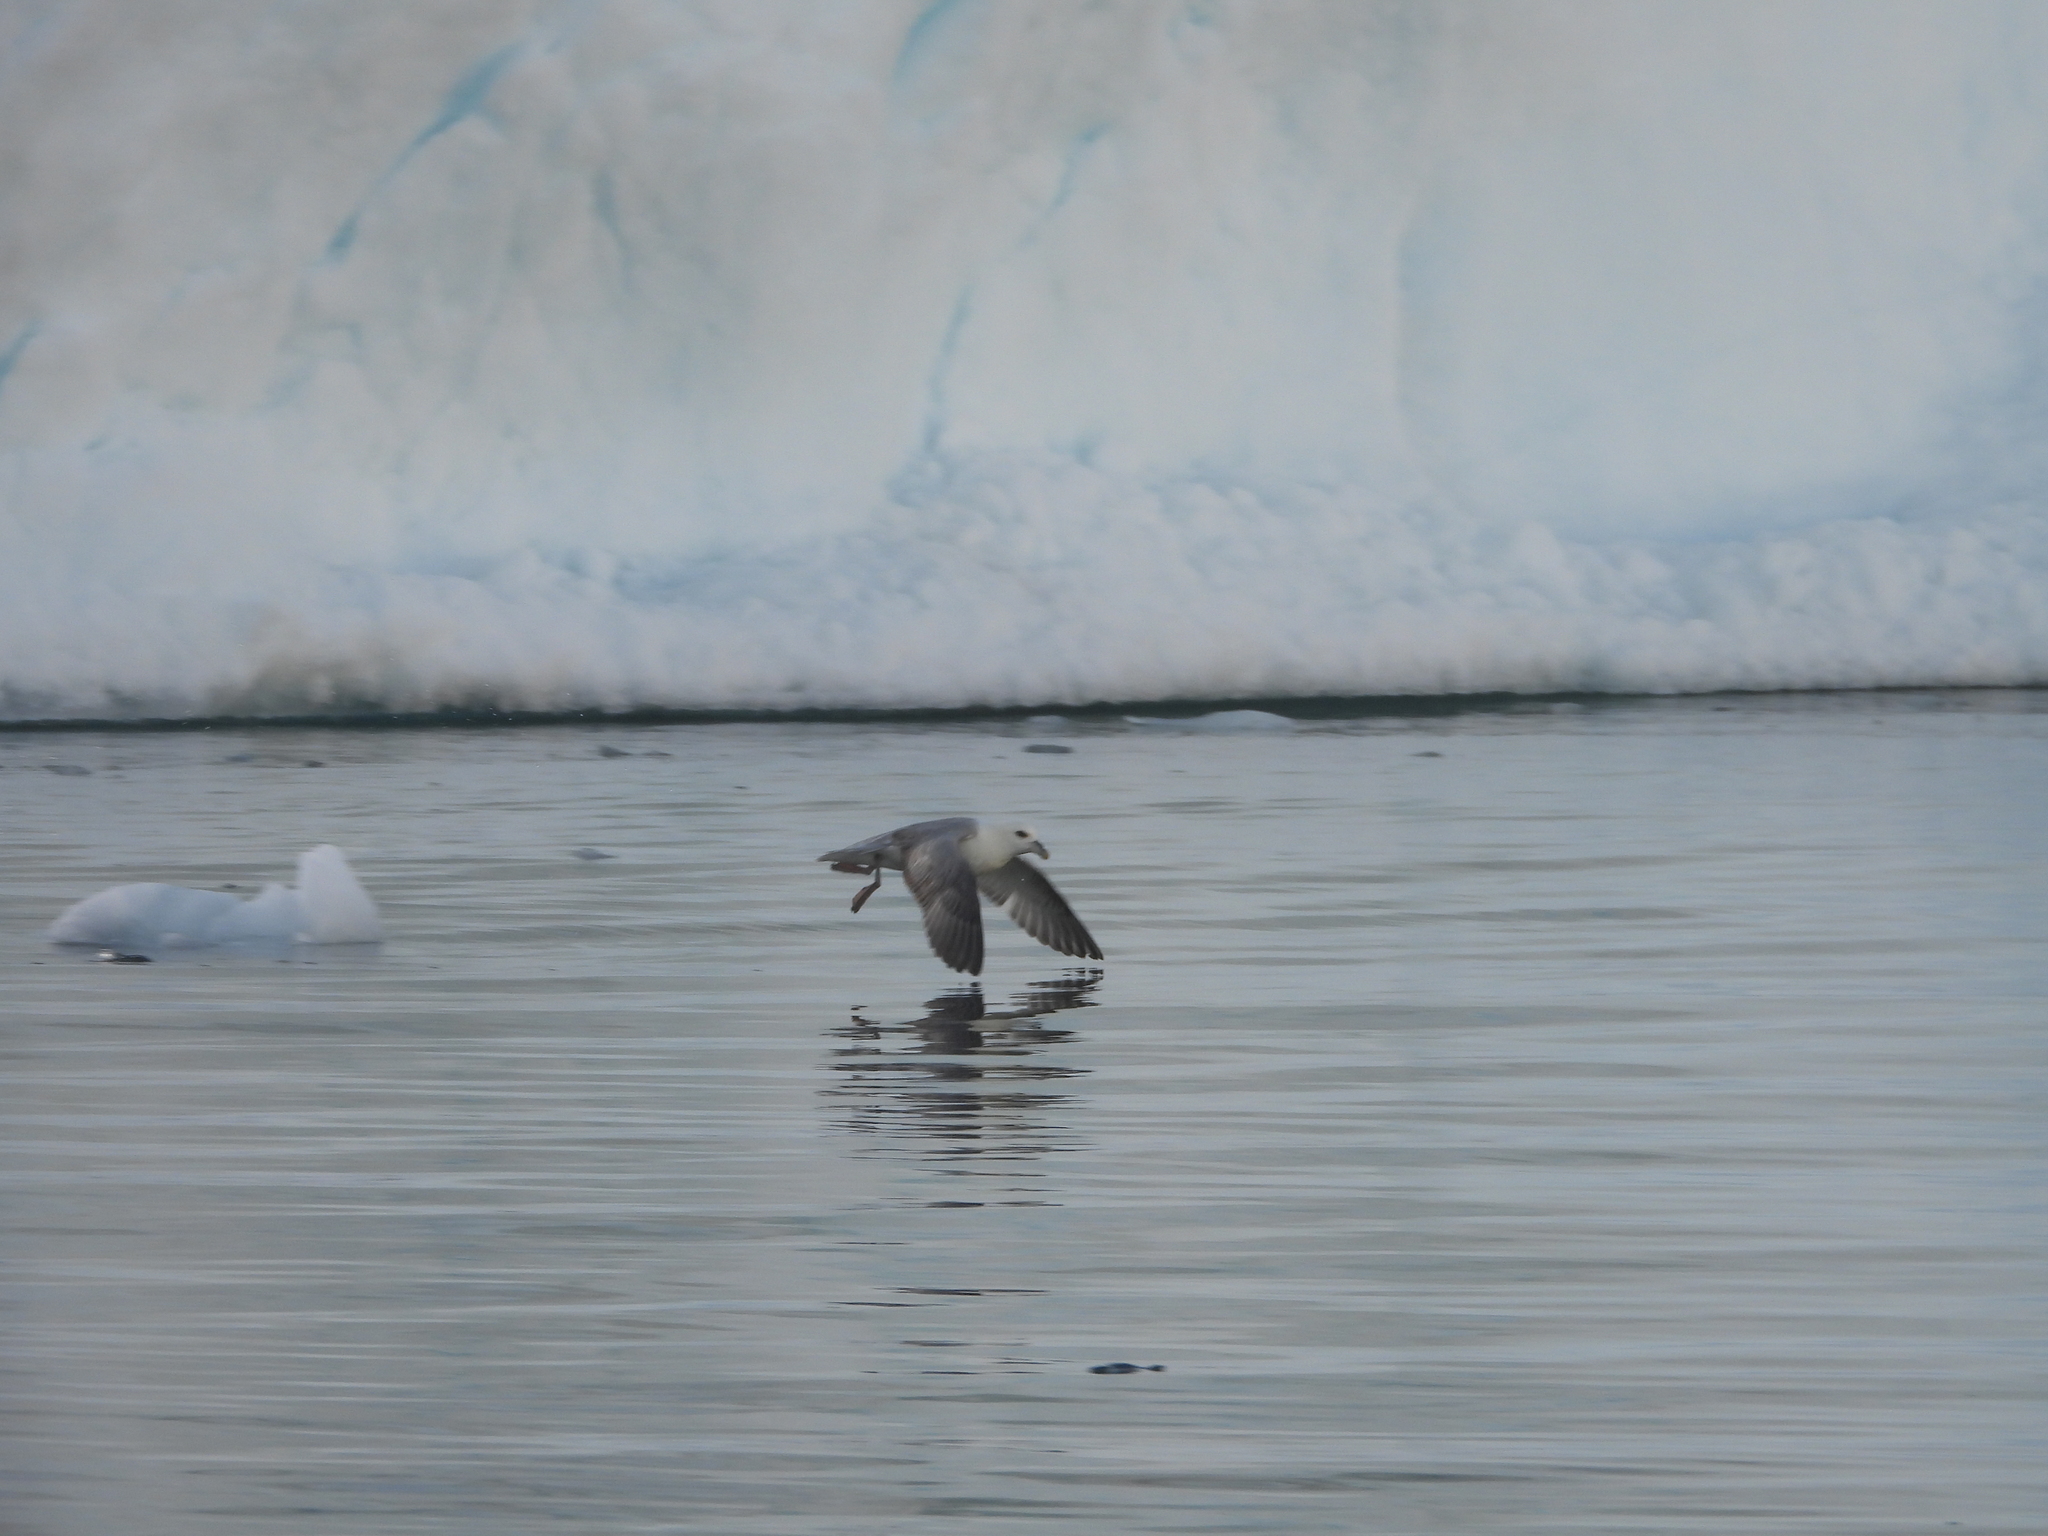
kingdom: Animalia
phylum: Chordata
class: Aves
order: Procellariiformes
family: Procellariidae
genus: Fulmarus
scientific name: Fulmarus glacialis
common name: Northern fulmar
